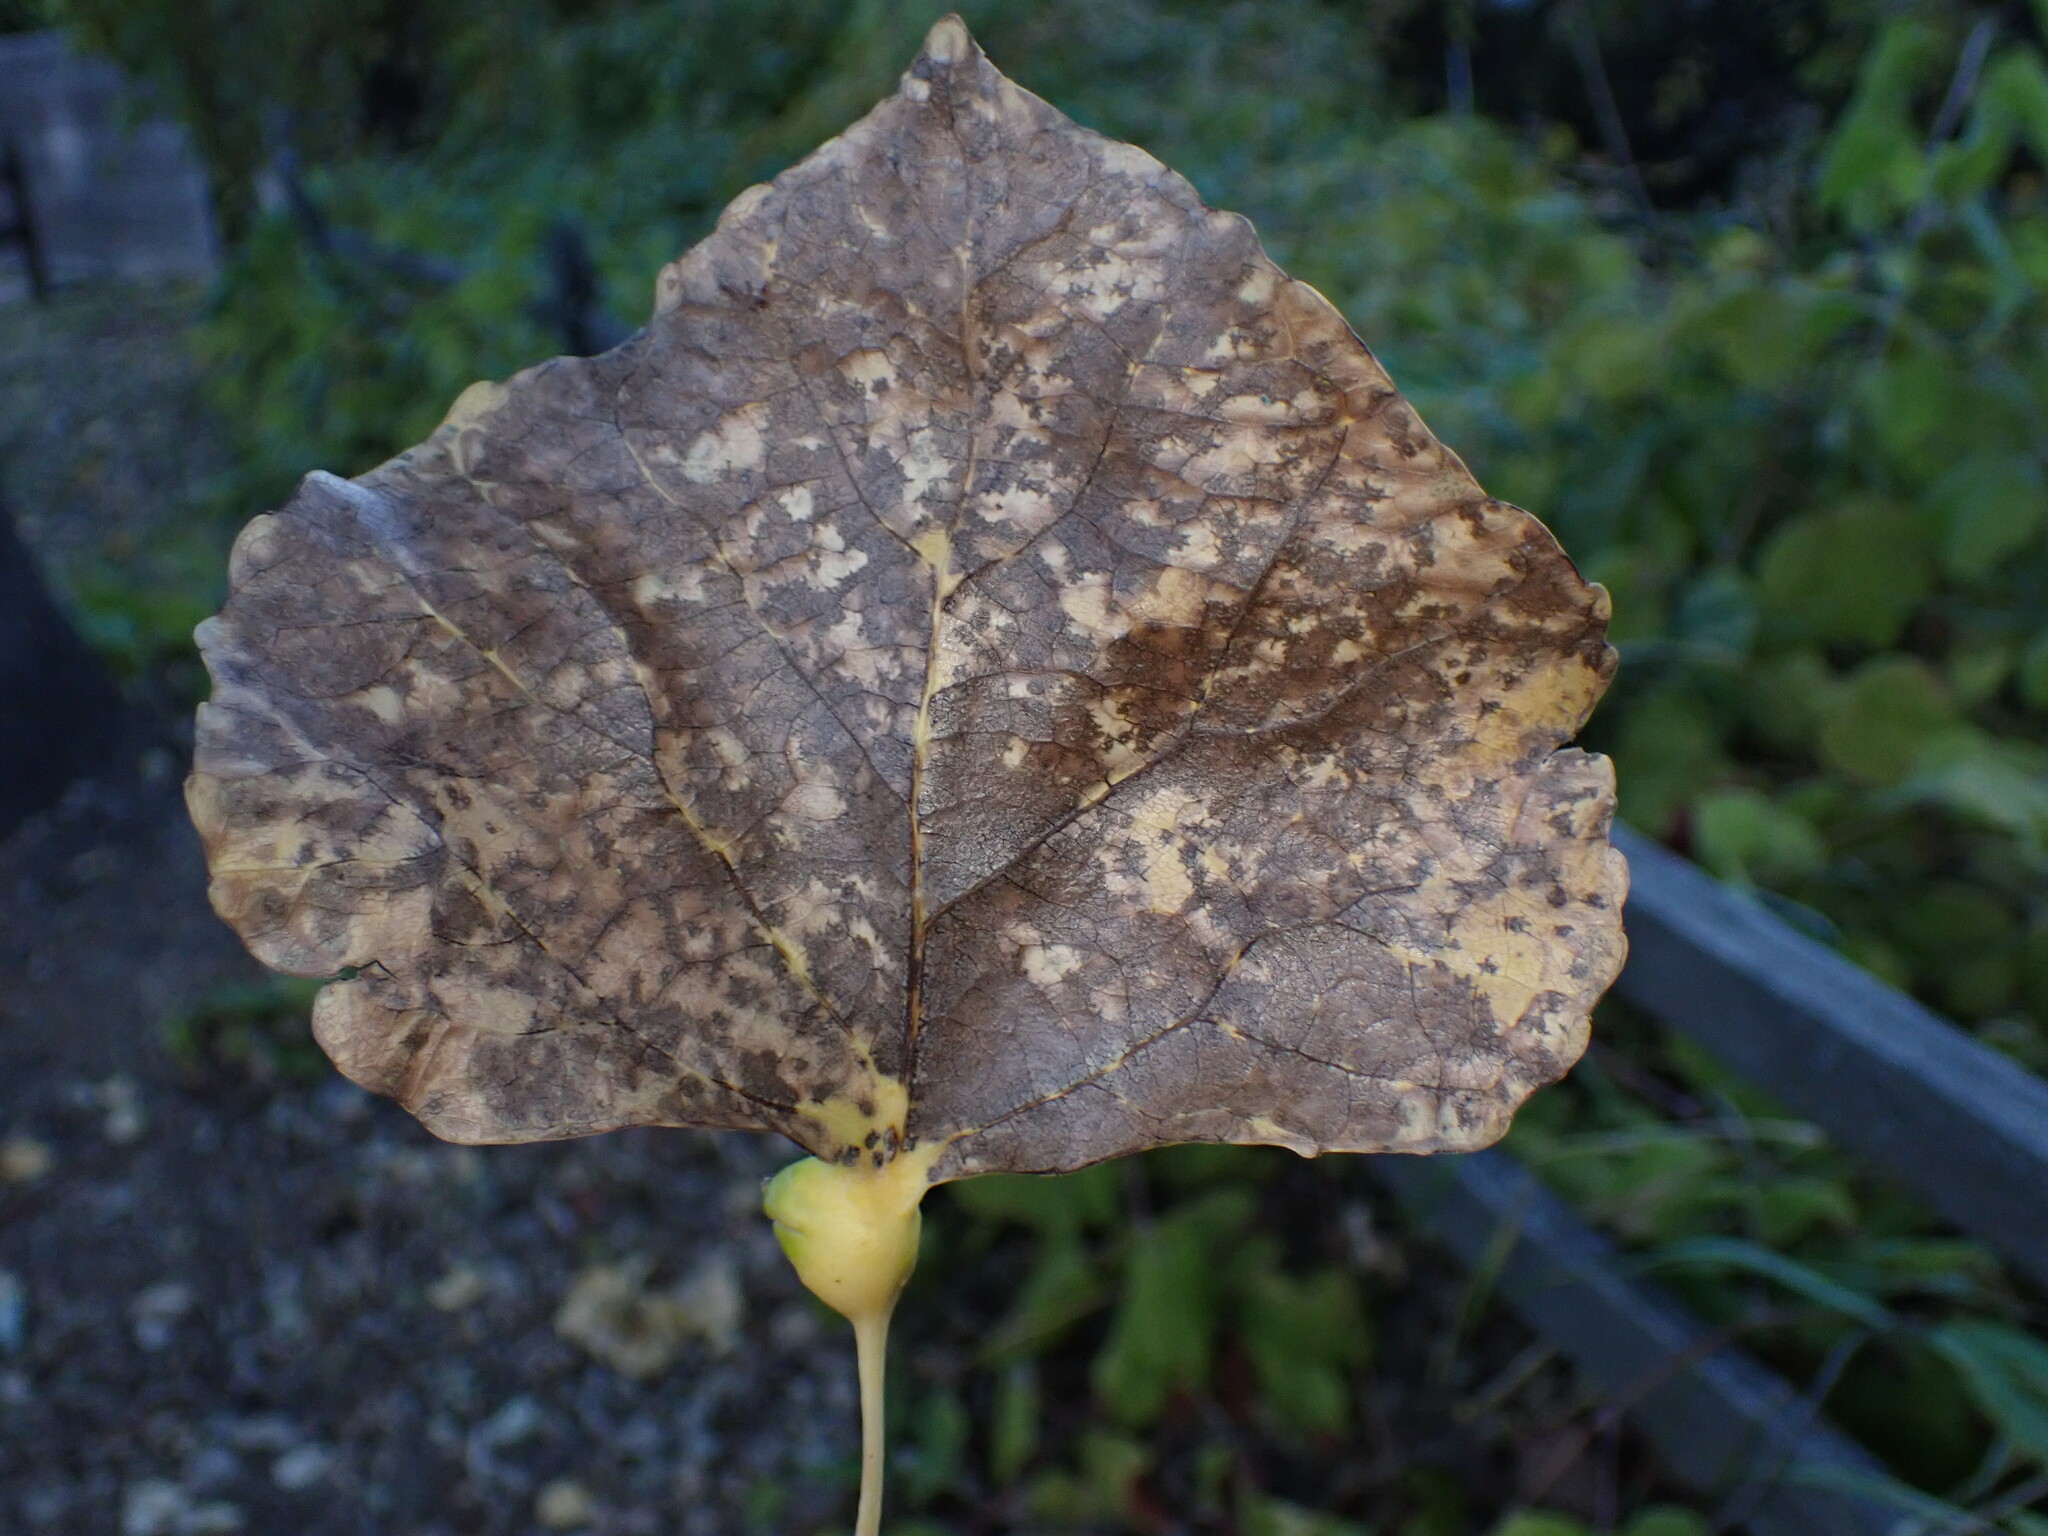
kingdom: Animalia
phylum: Arthropoda
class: Insecta
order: Hemiptera
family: Aphididae
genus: Pemphigus
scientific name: Pemphigus obesinymphae
